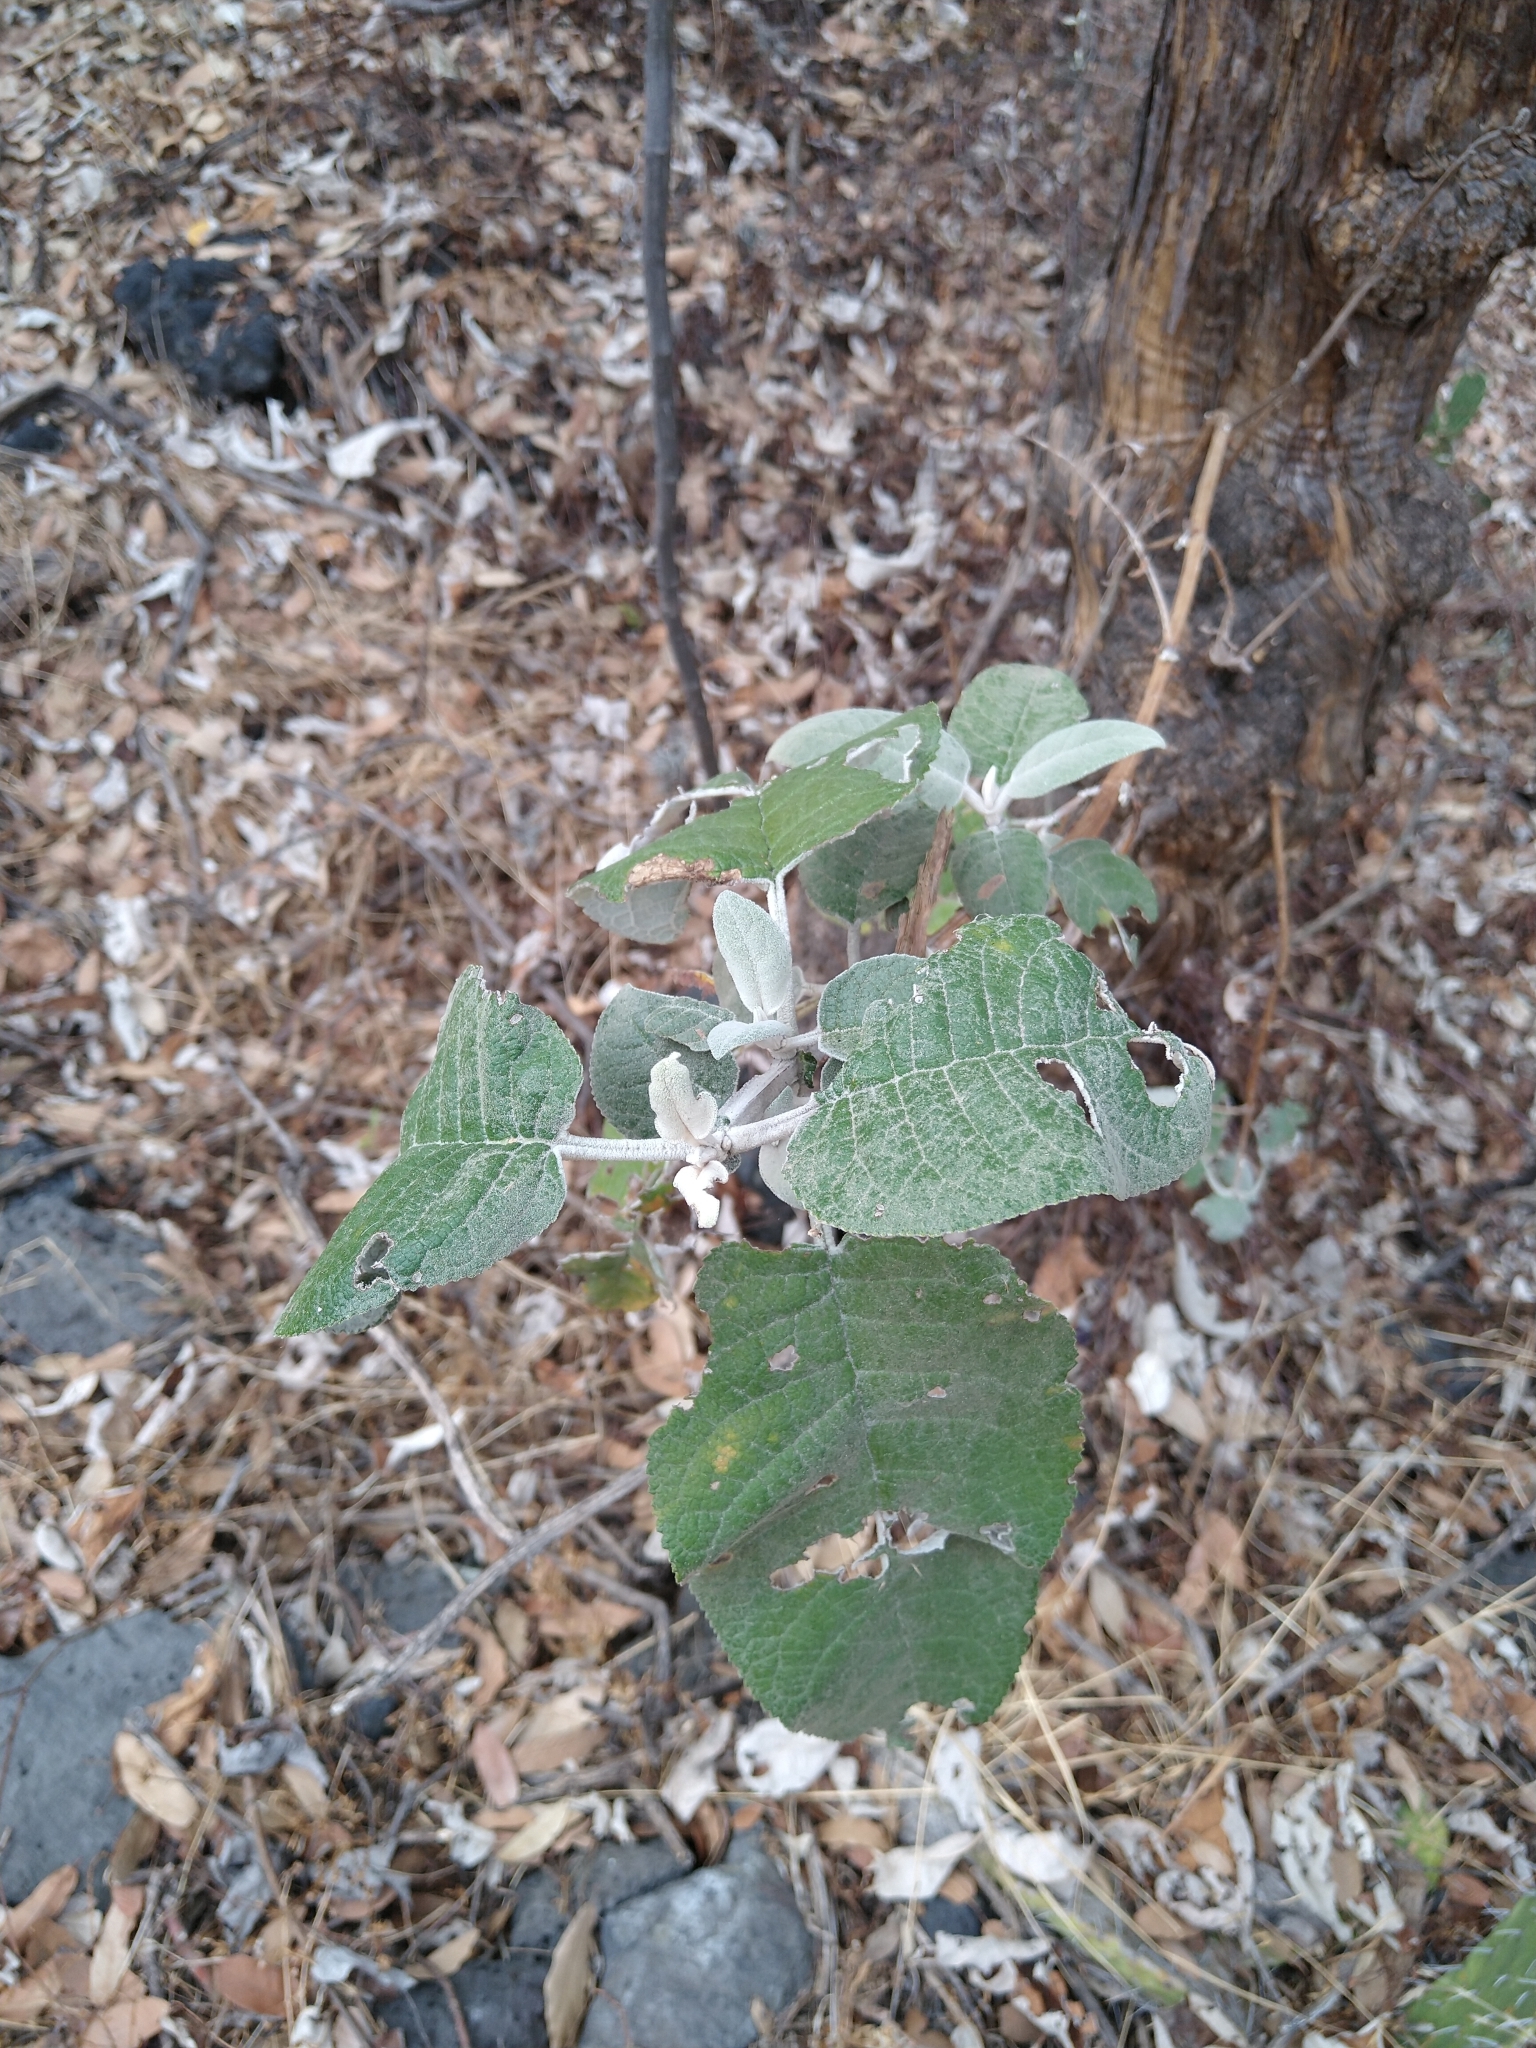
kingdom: Plantae
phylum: Tracheophyta
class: Magnoliopsida
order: Lamiales
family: Scrophulariaceae
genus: Buddleja
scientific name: Buddleja cordata
